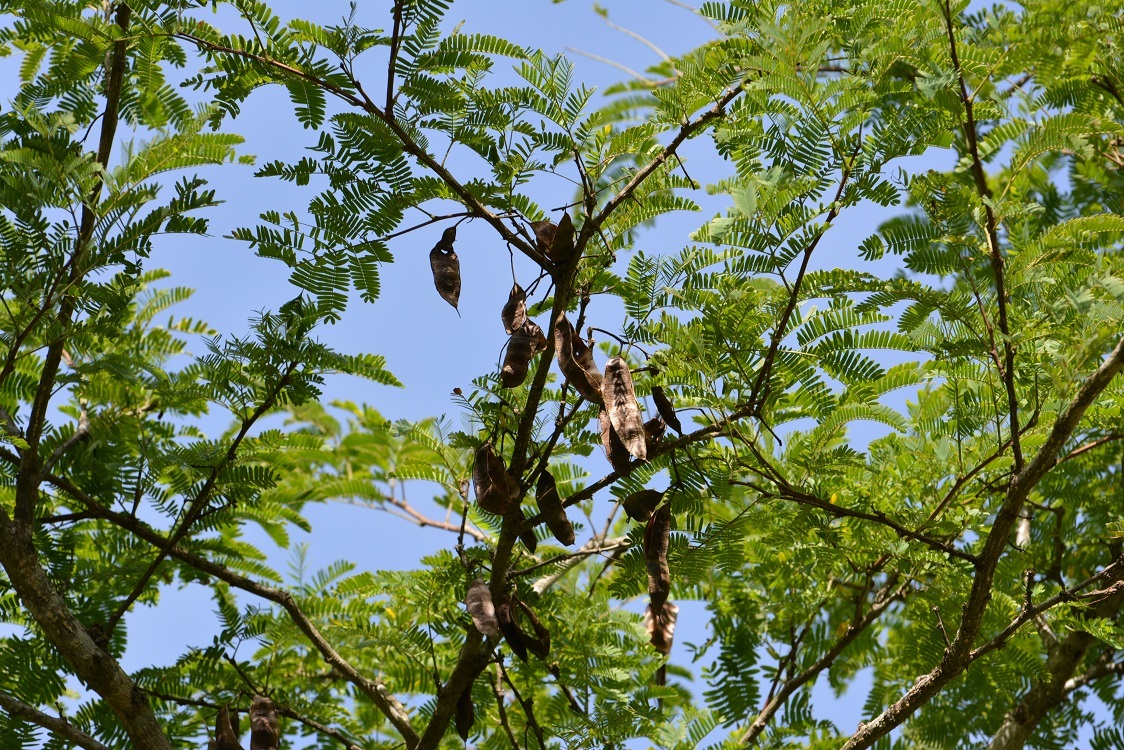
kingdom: Plantae
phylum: Tracheophyta
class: Magnoliopsida
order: Fabales
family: Fabaceae
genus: Mariosousa
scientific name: Mariosousa coulteri
